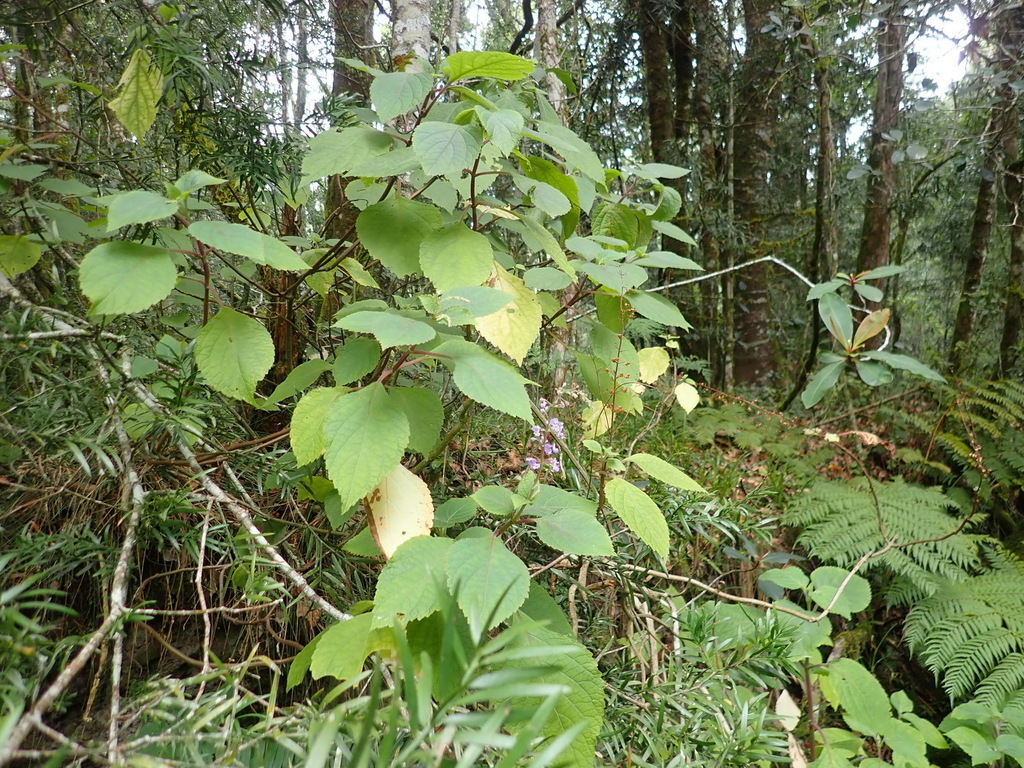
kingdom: Plantae
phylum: Tracheophyta
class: Magnoliopsida
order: Lamiales
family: Lamiaceae
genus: Plectranthus
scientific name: Plectranthus fruticosus
